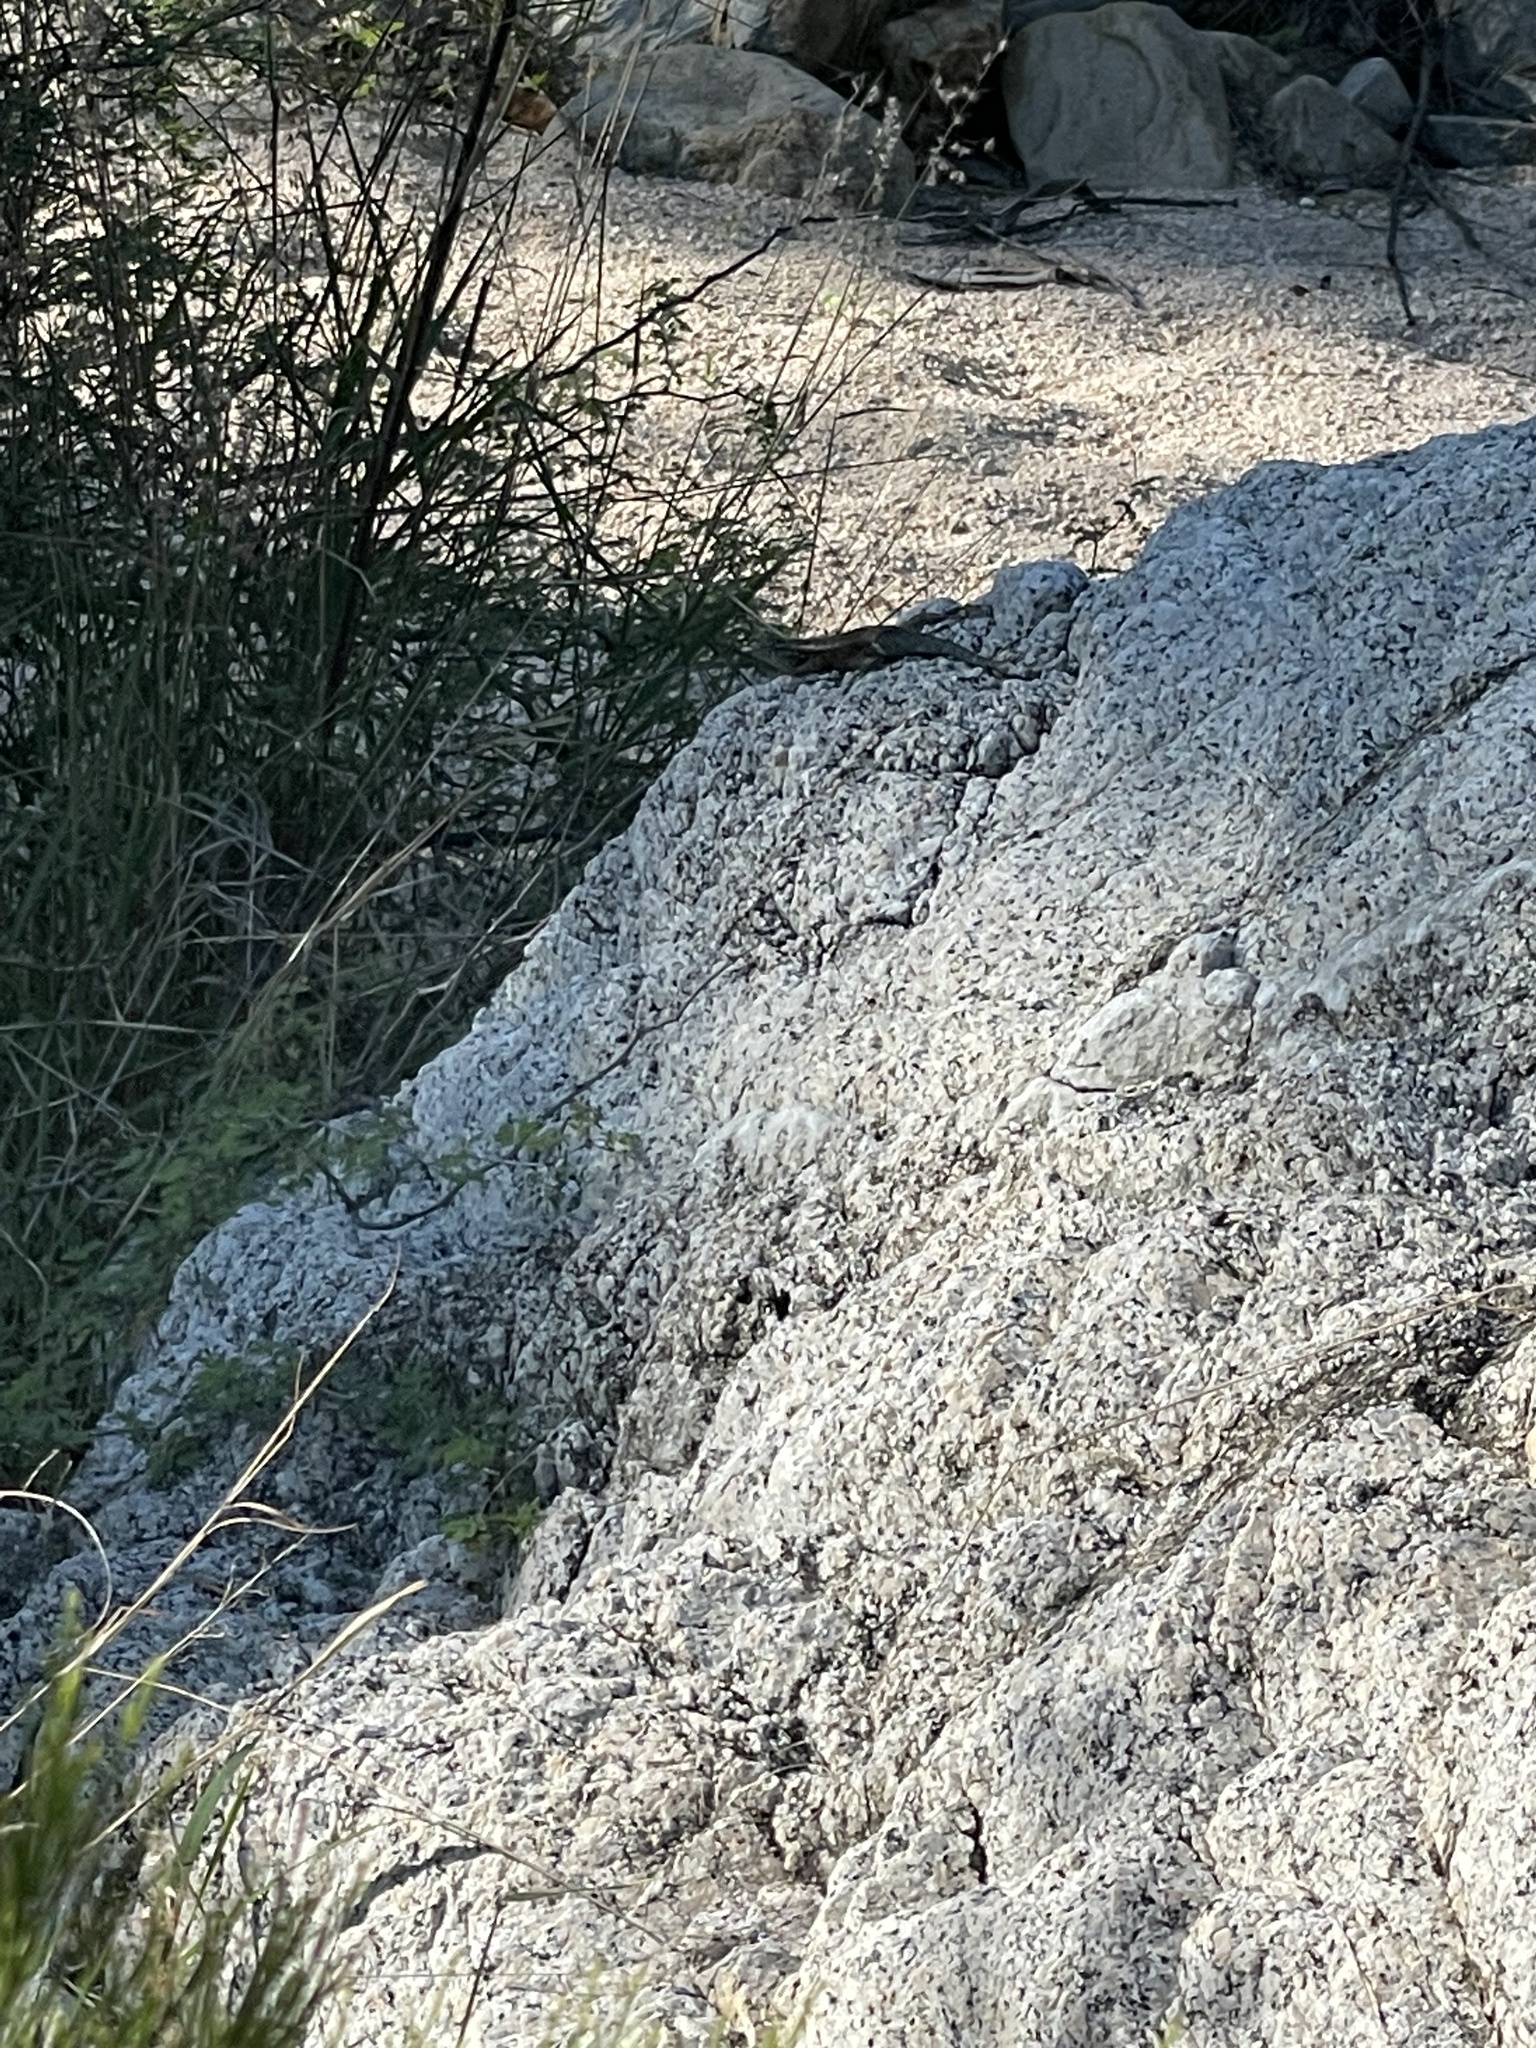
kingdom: Animalia
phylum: Chordata
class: Squamata
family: Phrynosomatidae
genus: Sceloporus
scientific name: Sceloporus licki
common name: Cape arboreal spiny lizard
